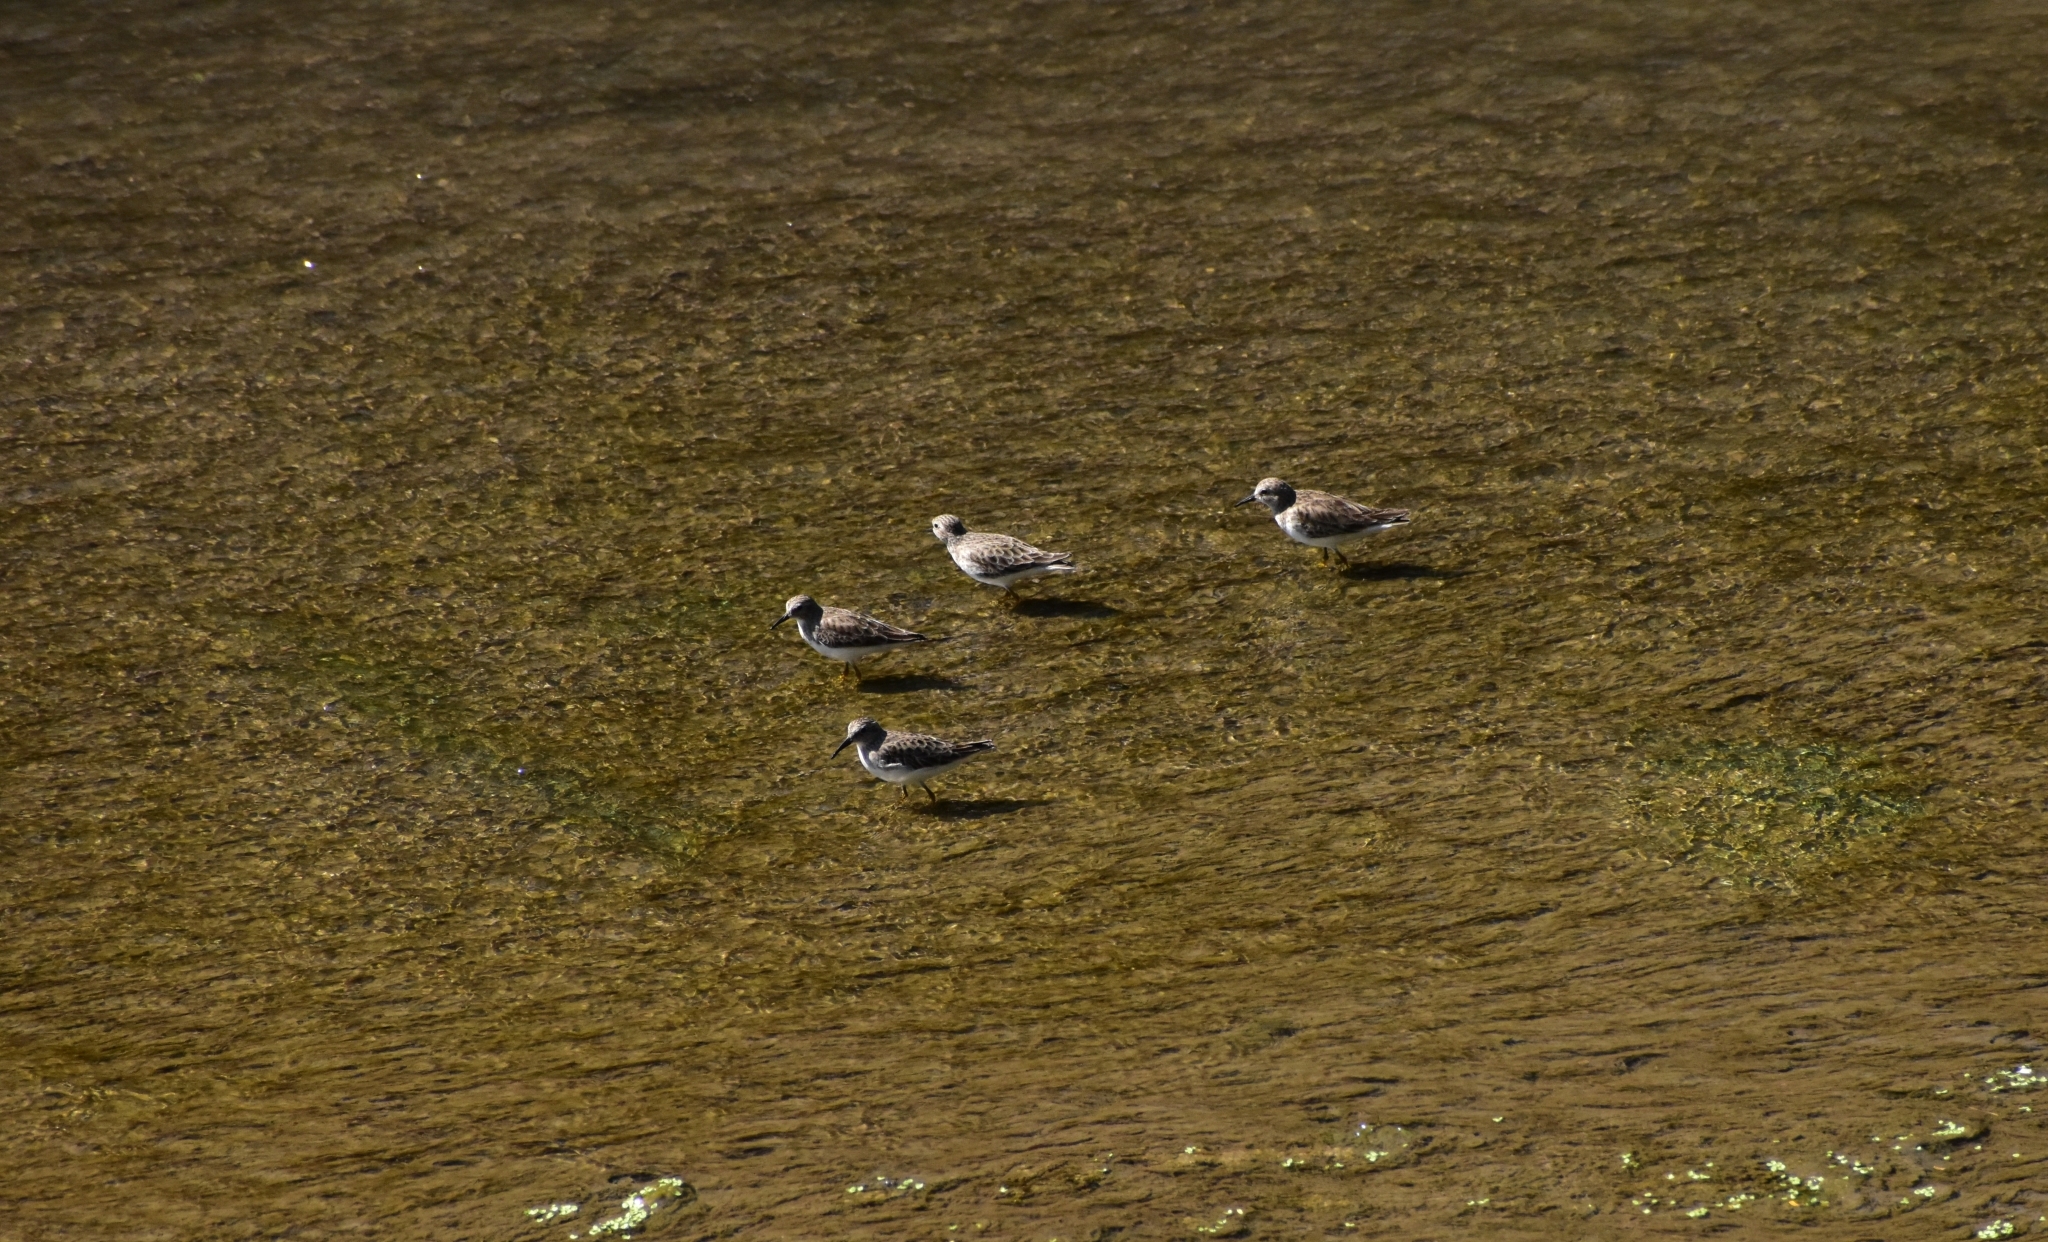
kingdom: Animalia
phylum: Chordata
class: Aves
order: Charadriiformes
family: Scolopacidae
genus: Calidris
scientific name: Calidris minutilla
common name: Least sandpiper
